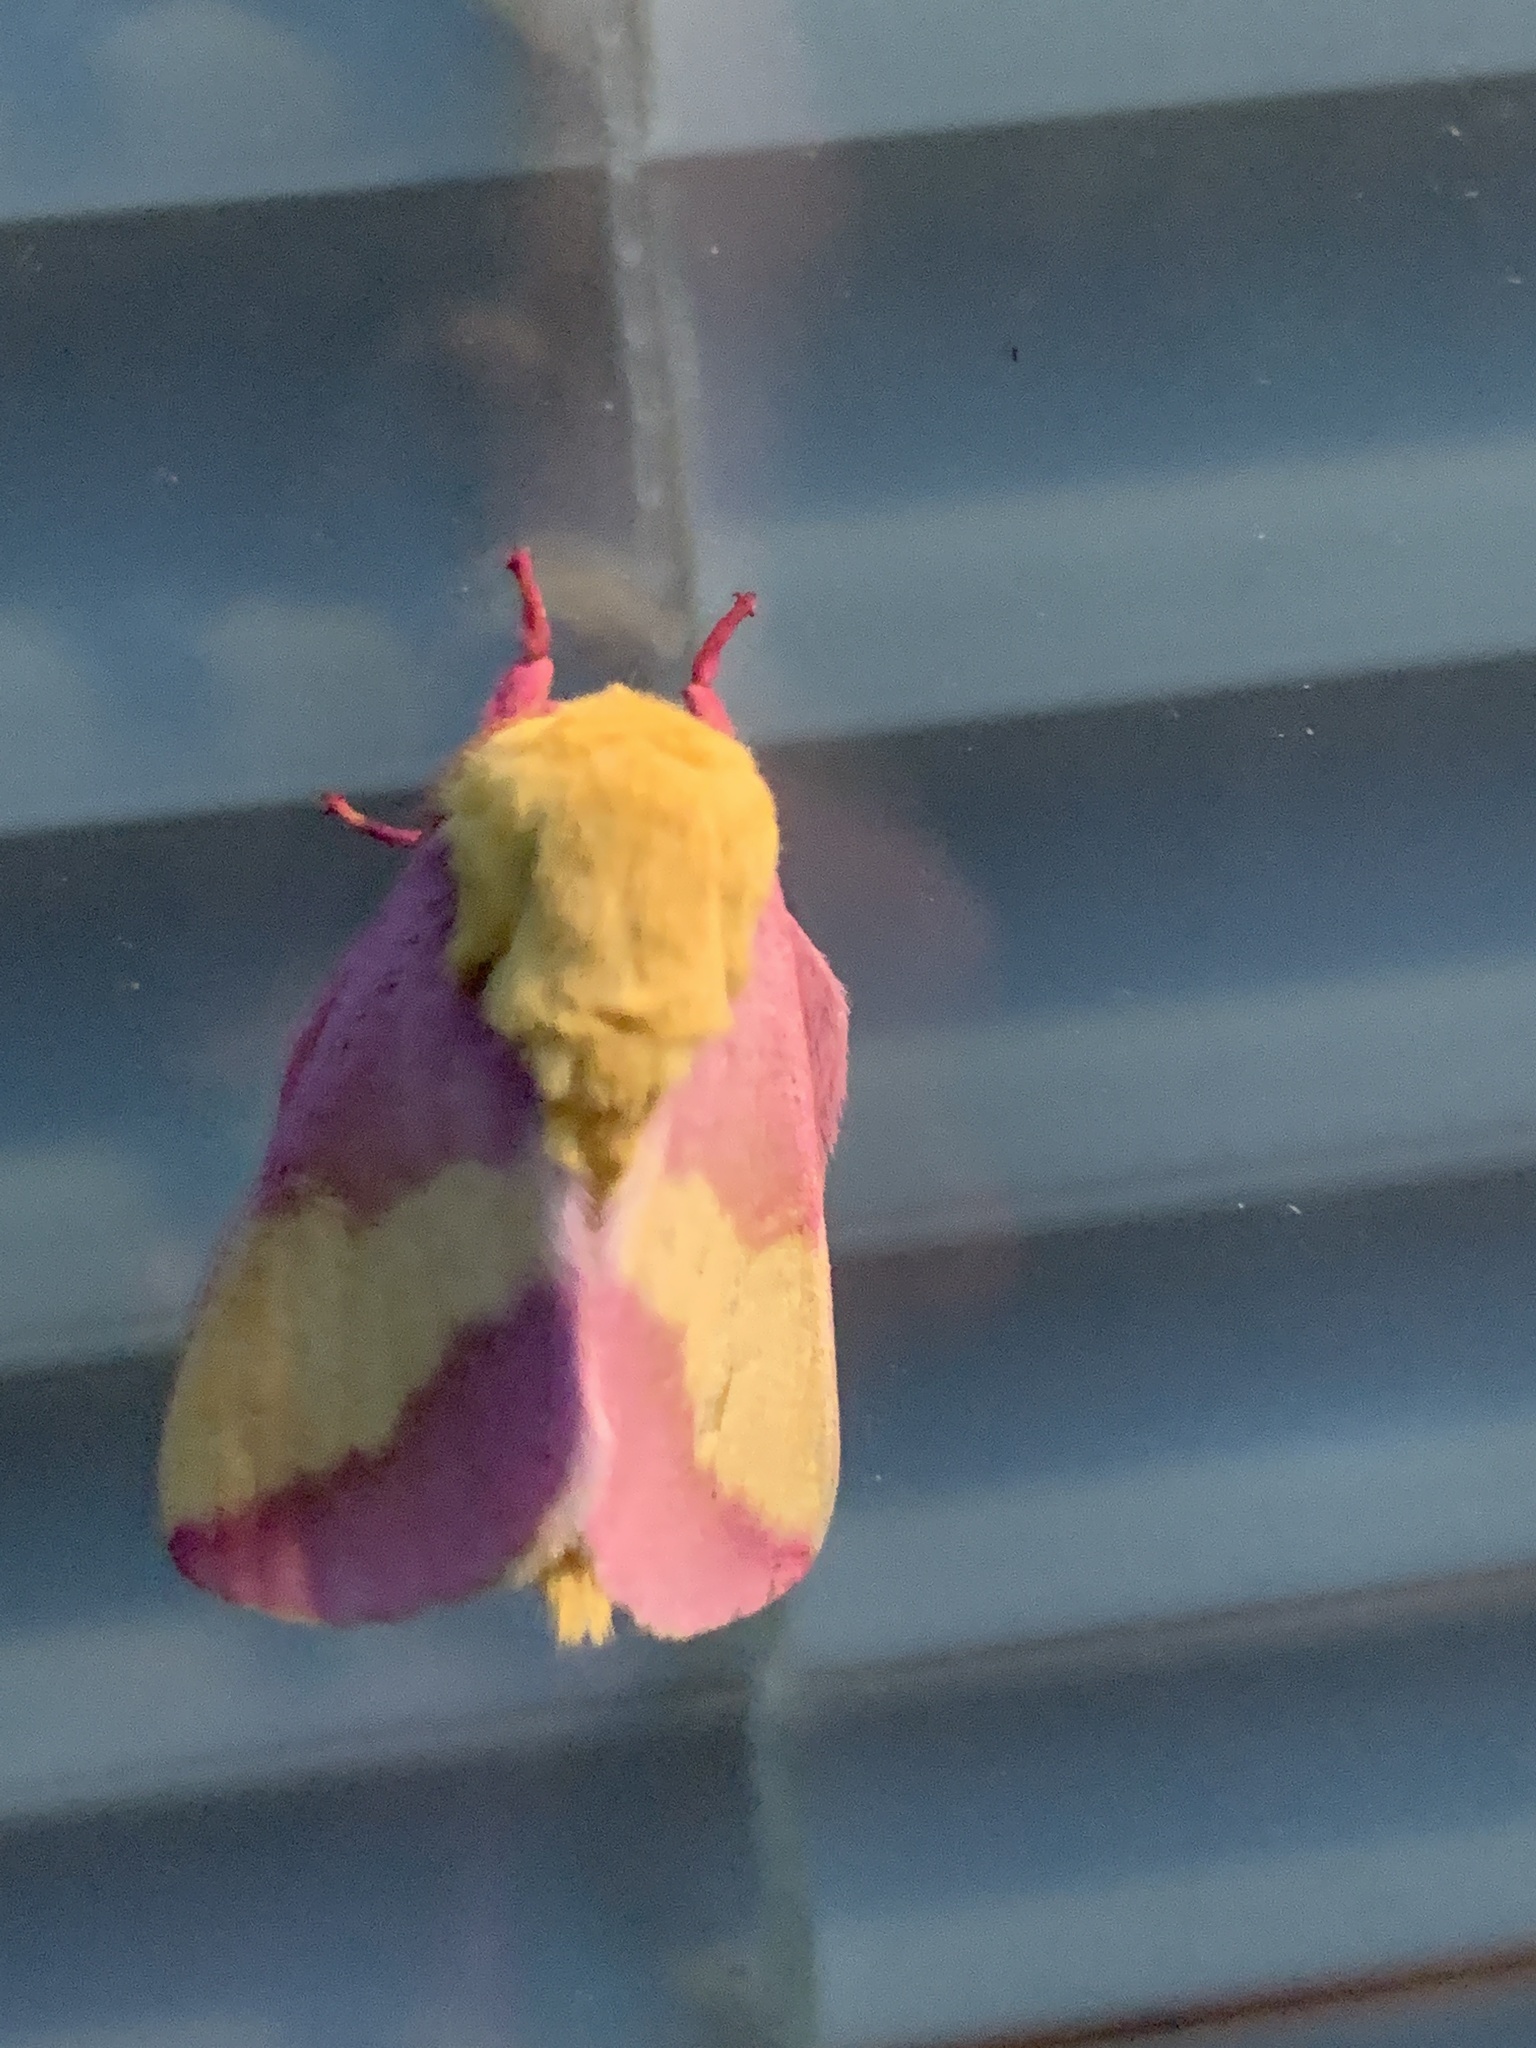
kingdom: Animalia
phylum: Arthropoda
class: Insecta
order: Lepidoptera
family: Saturniidae
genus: Dryocampa
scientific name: Dryocampa rubicunda
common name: Rosy maple moth
